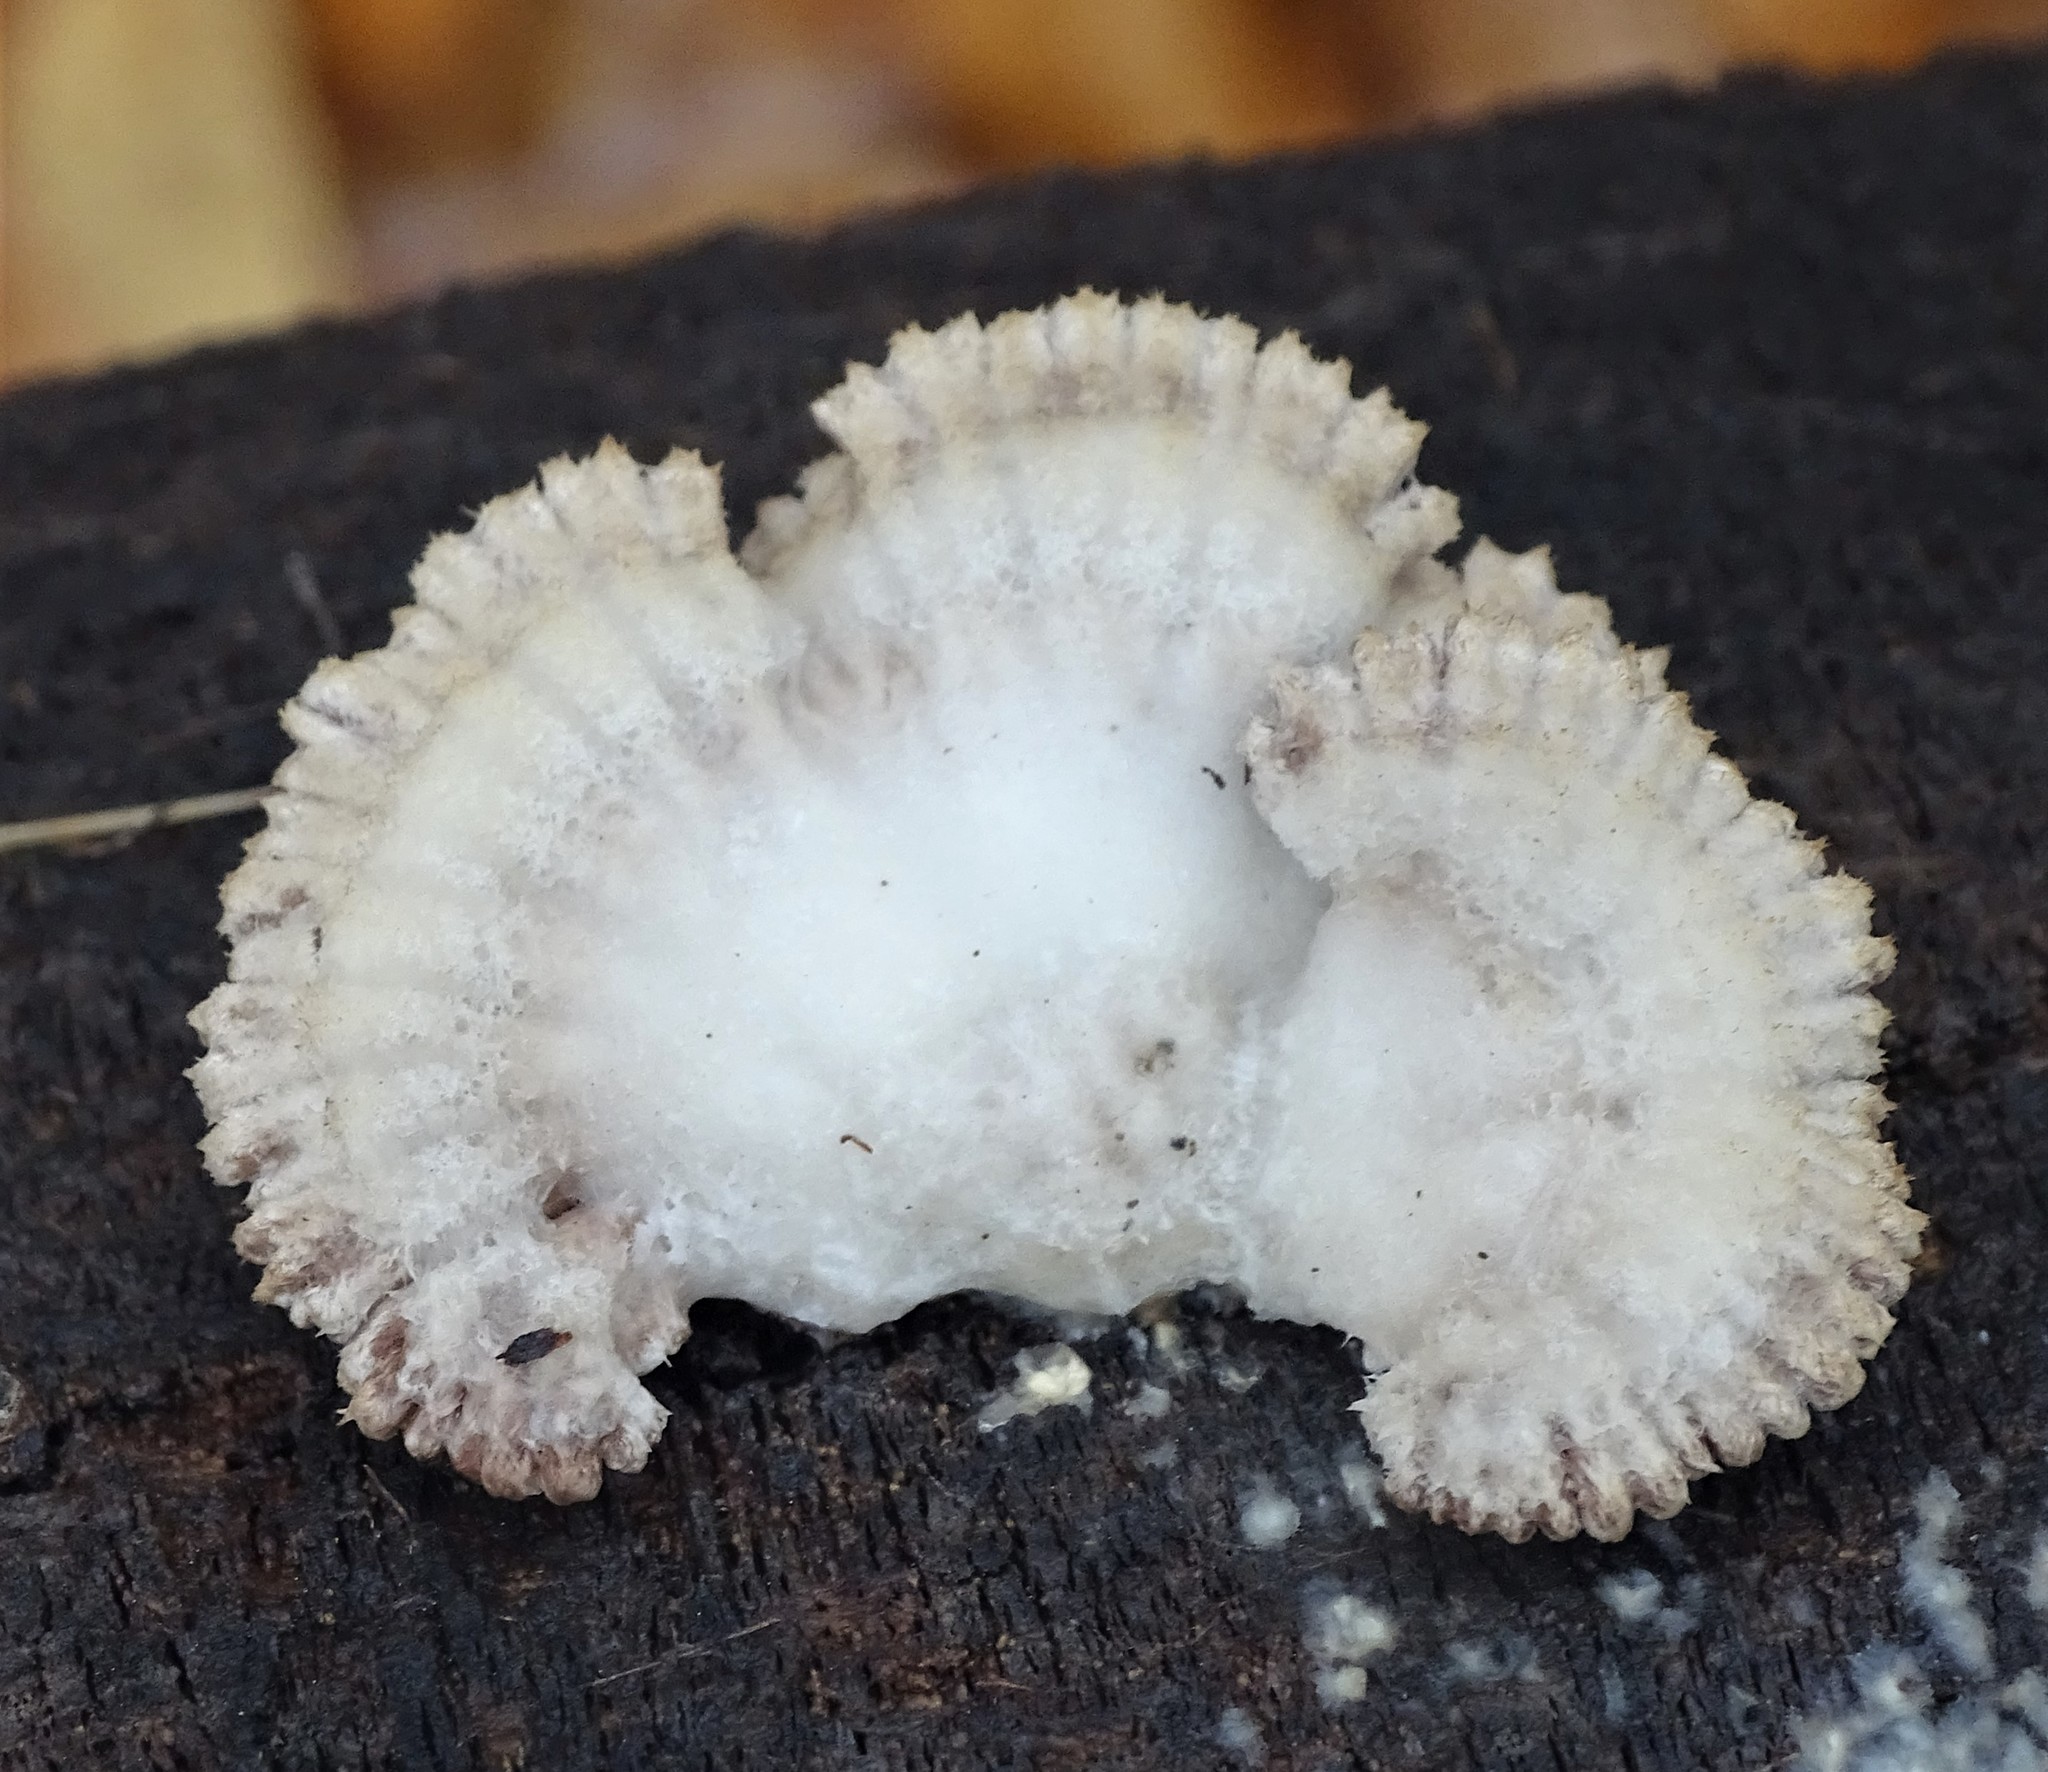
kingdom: Fungi
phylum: Basidiomycota
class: Agaricomycetes
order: Agaricales
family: Schizophyllaceae
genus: Schizophyllum
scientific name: Schizophyllum commune
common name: Common porecrust
